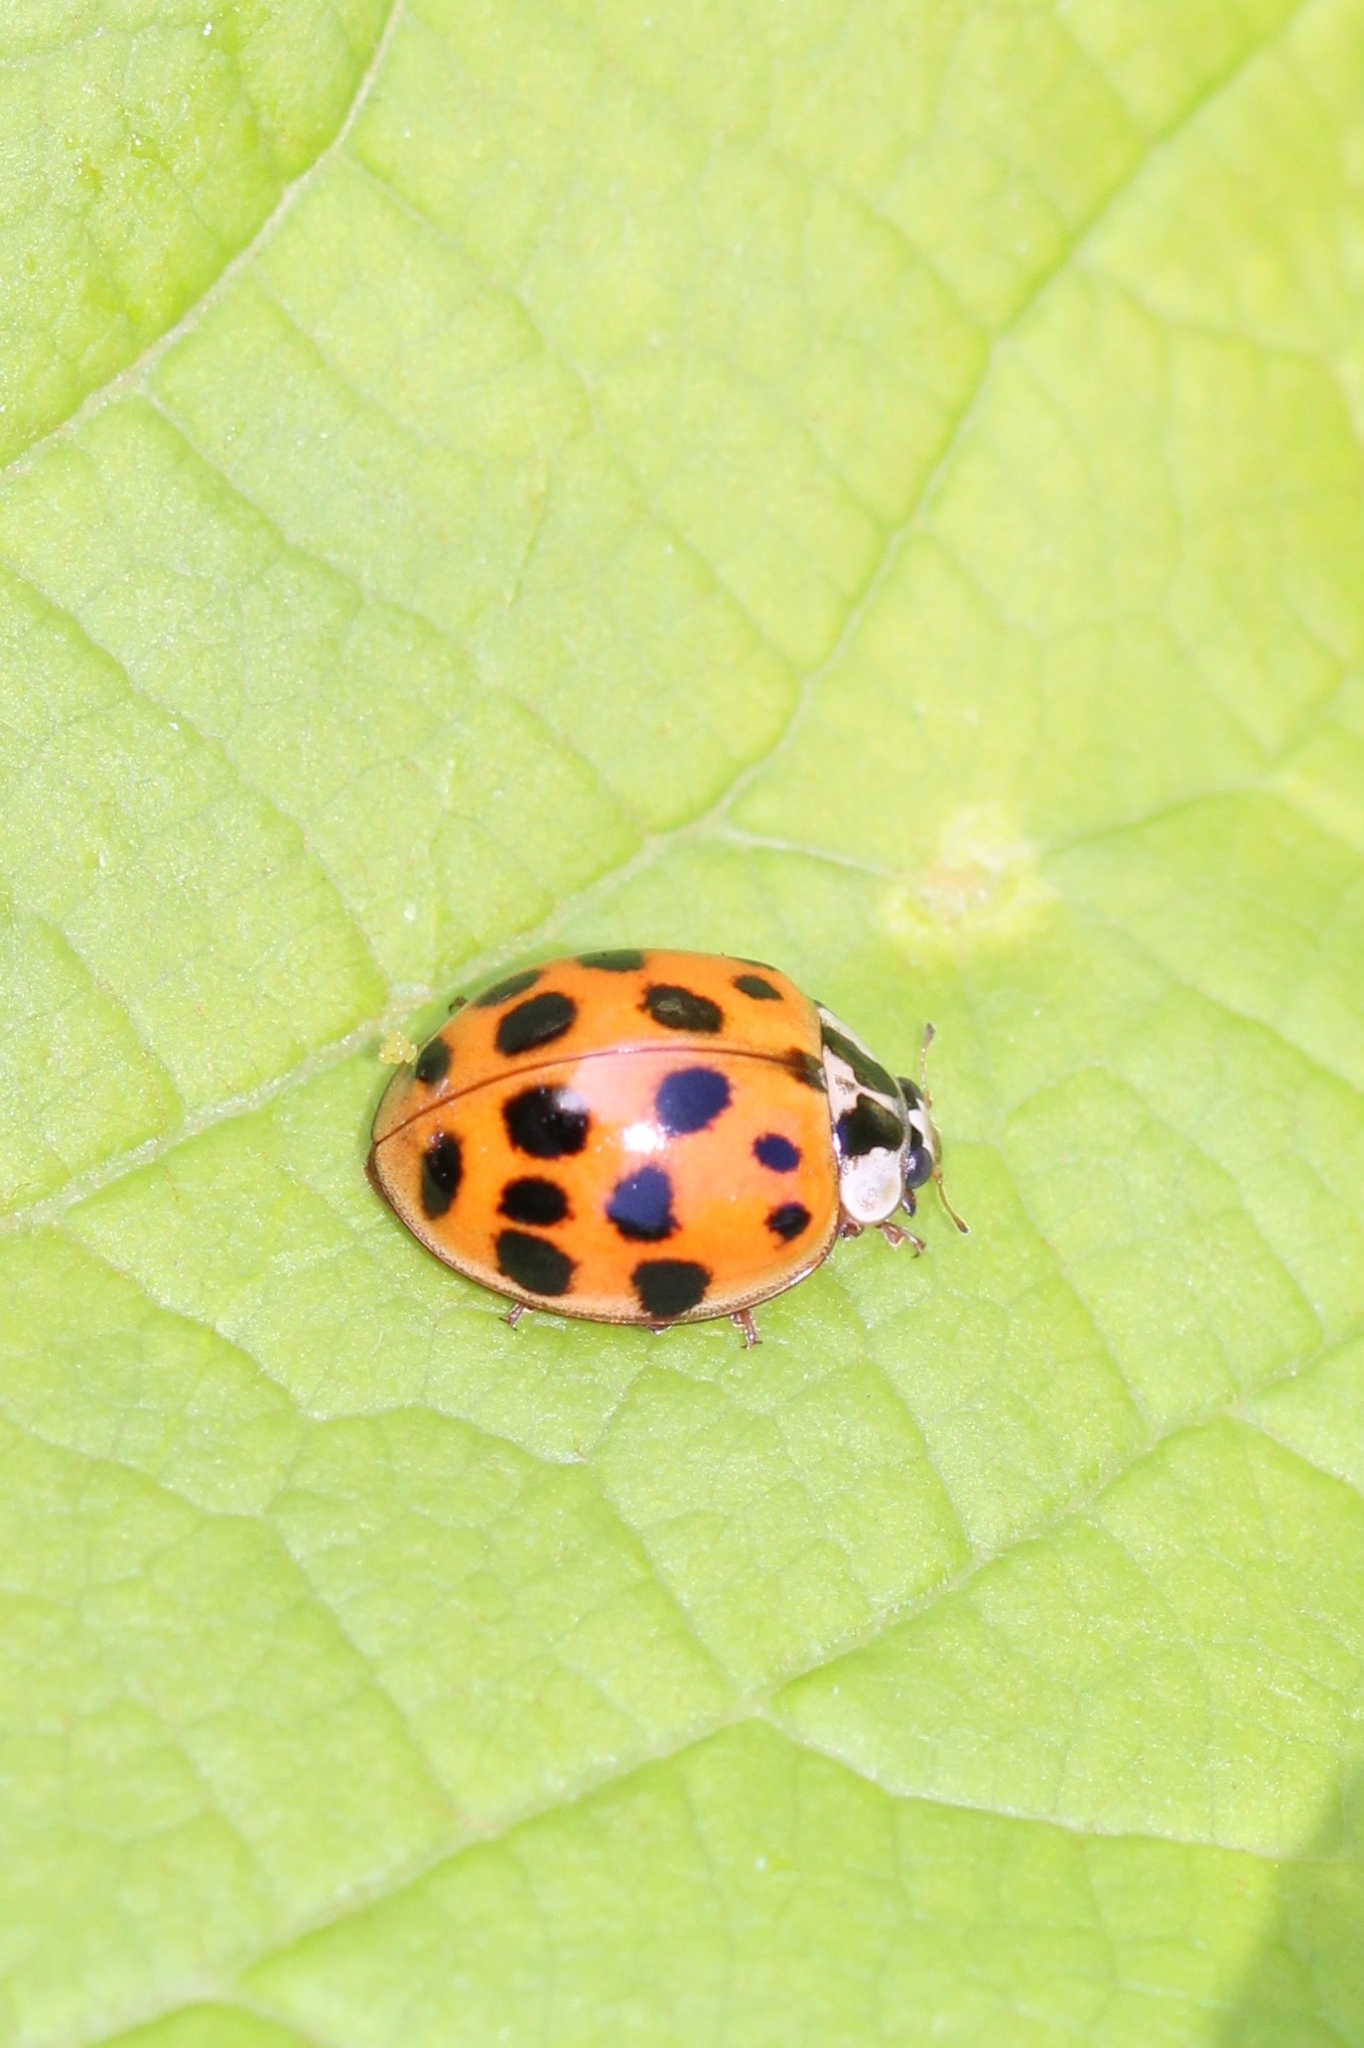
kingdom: Animalia
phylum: Arthropoda
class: Insecta
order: Coleoptera
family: Coccinellidae
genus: Harmonia
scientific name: Harmonia axyridis
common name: Harlequin ladybird
